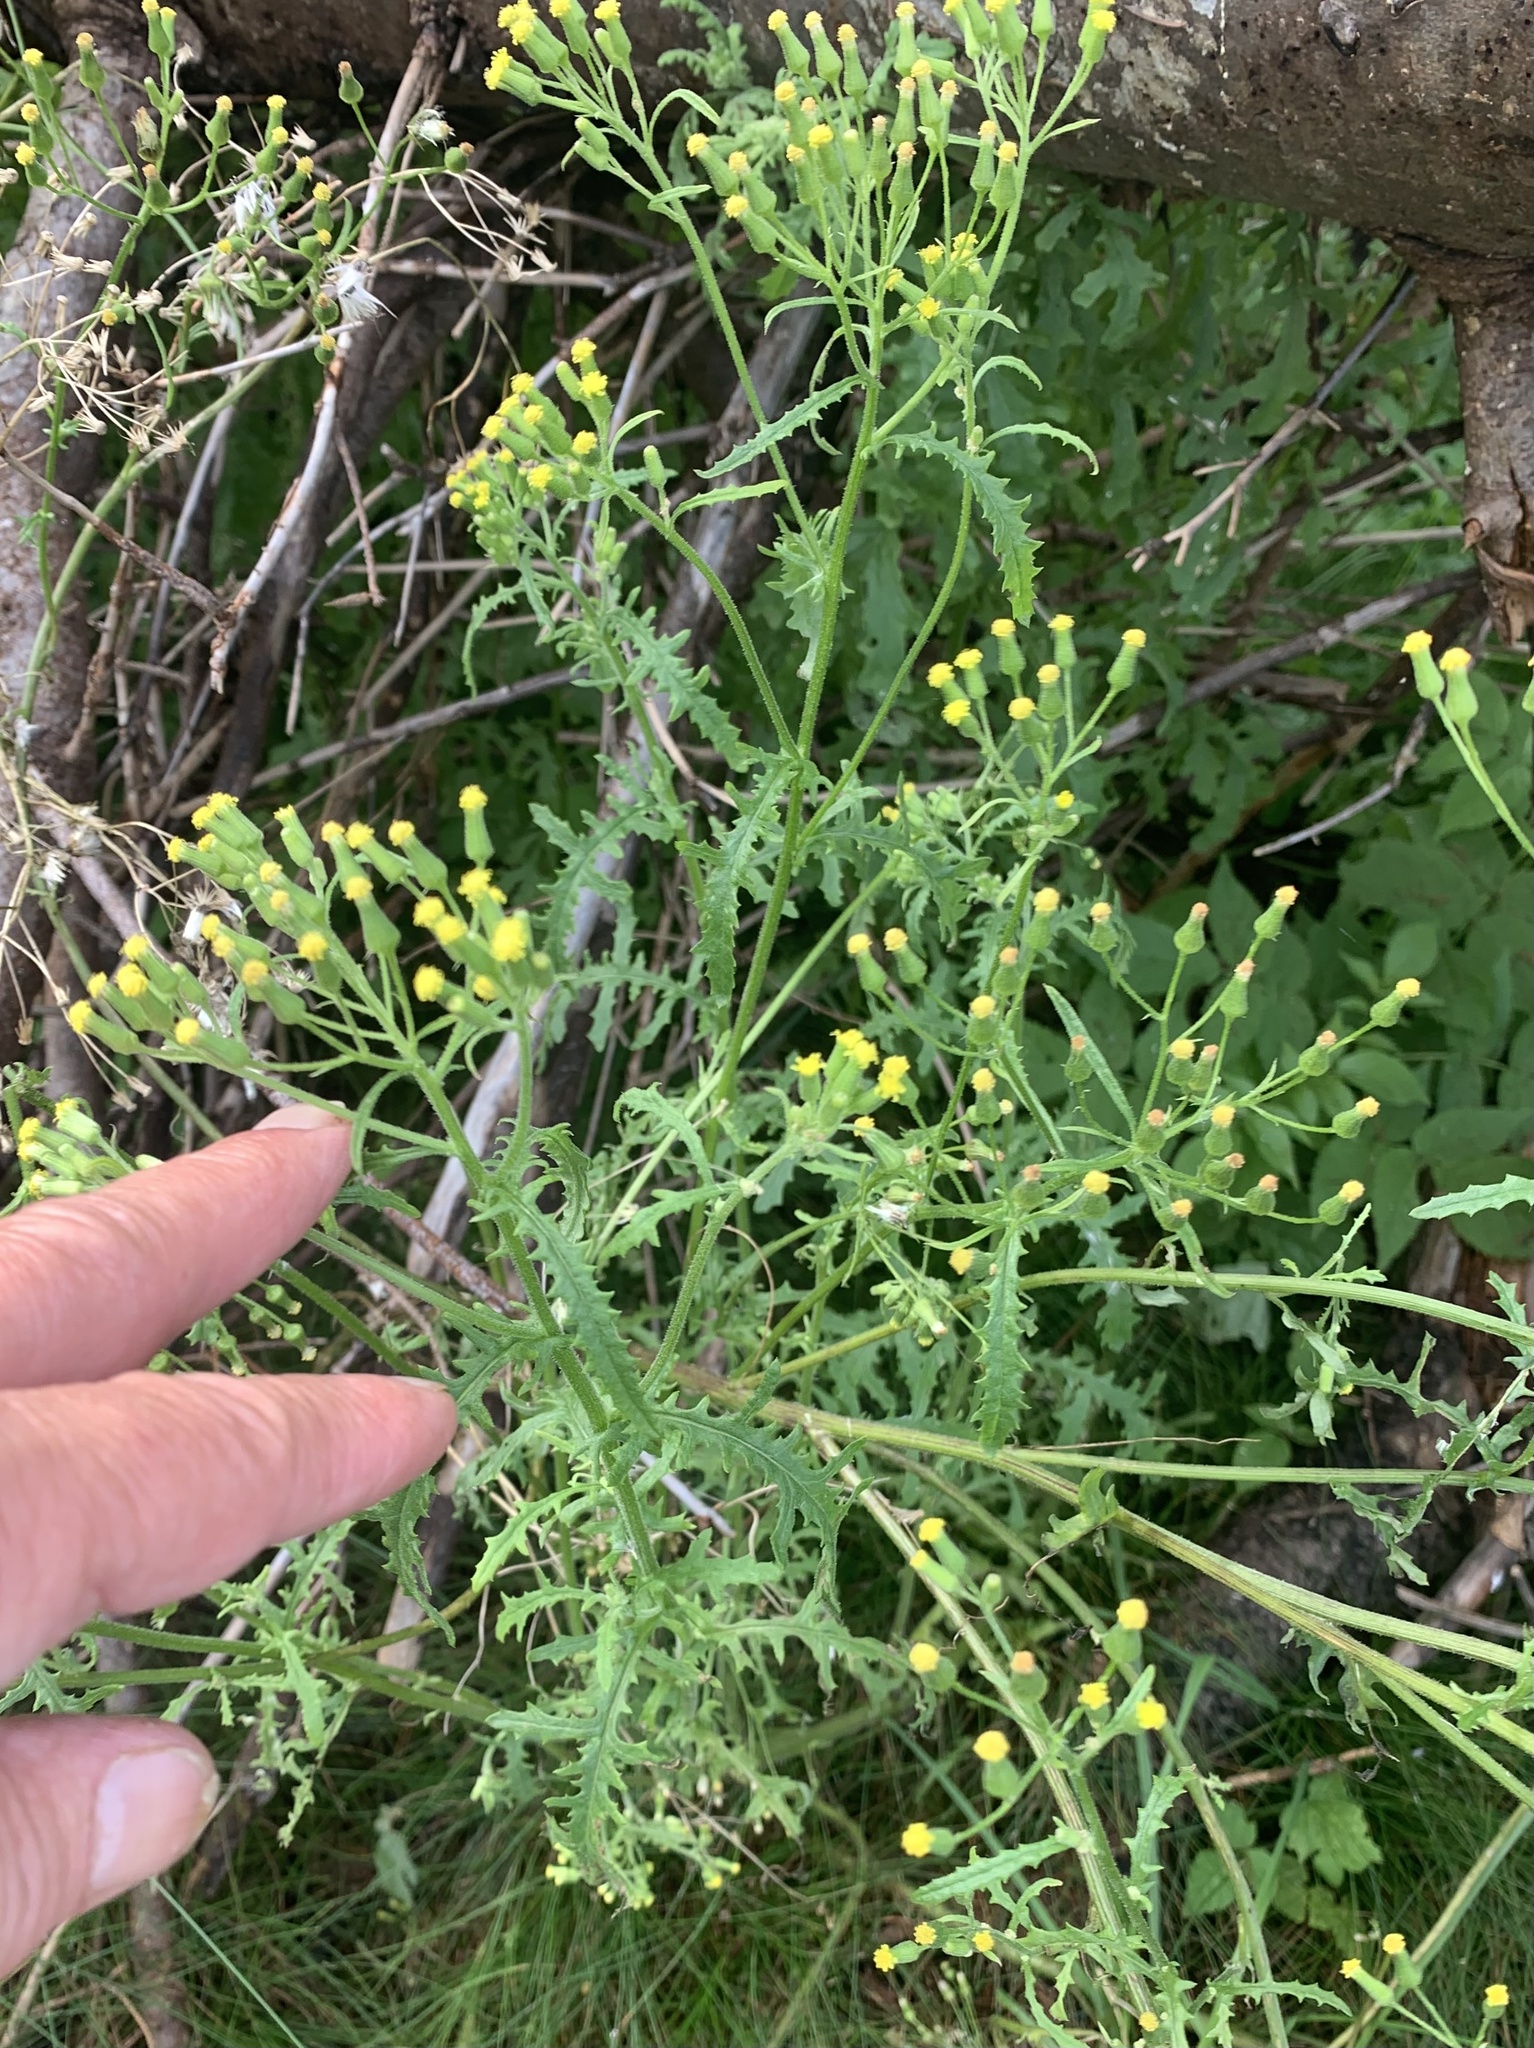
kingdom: Plantae
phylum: Tracheophyta
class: Magnoliopsida
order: Asterales
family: Asteraceae
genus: Senecio
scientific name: Senecio sylvaticus
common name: Woodland ragwort
